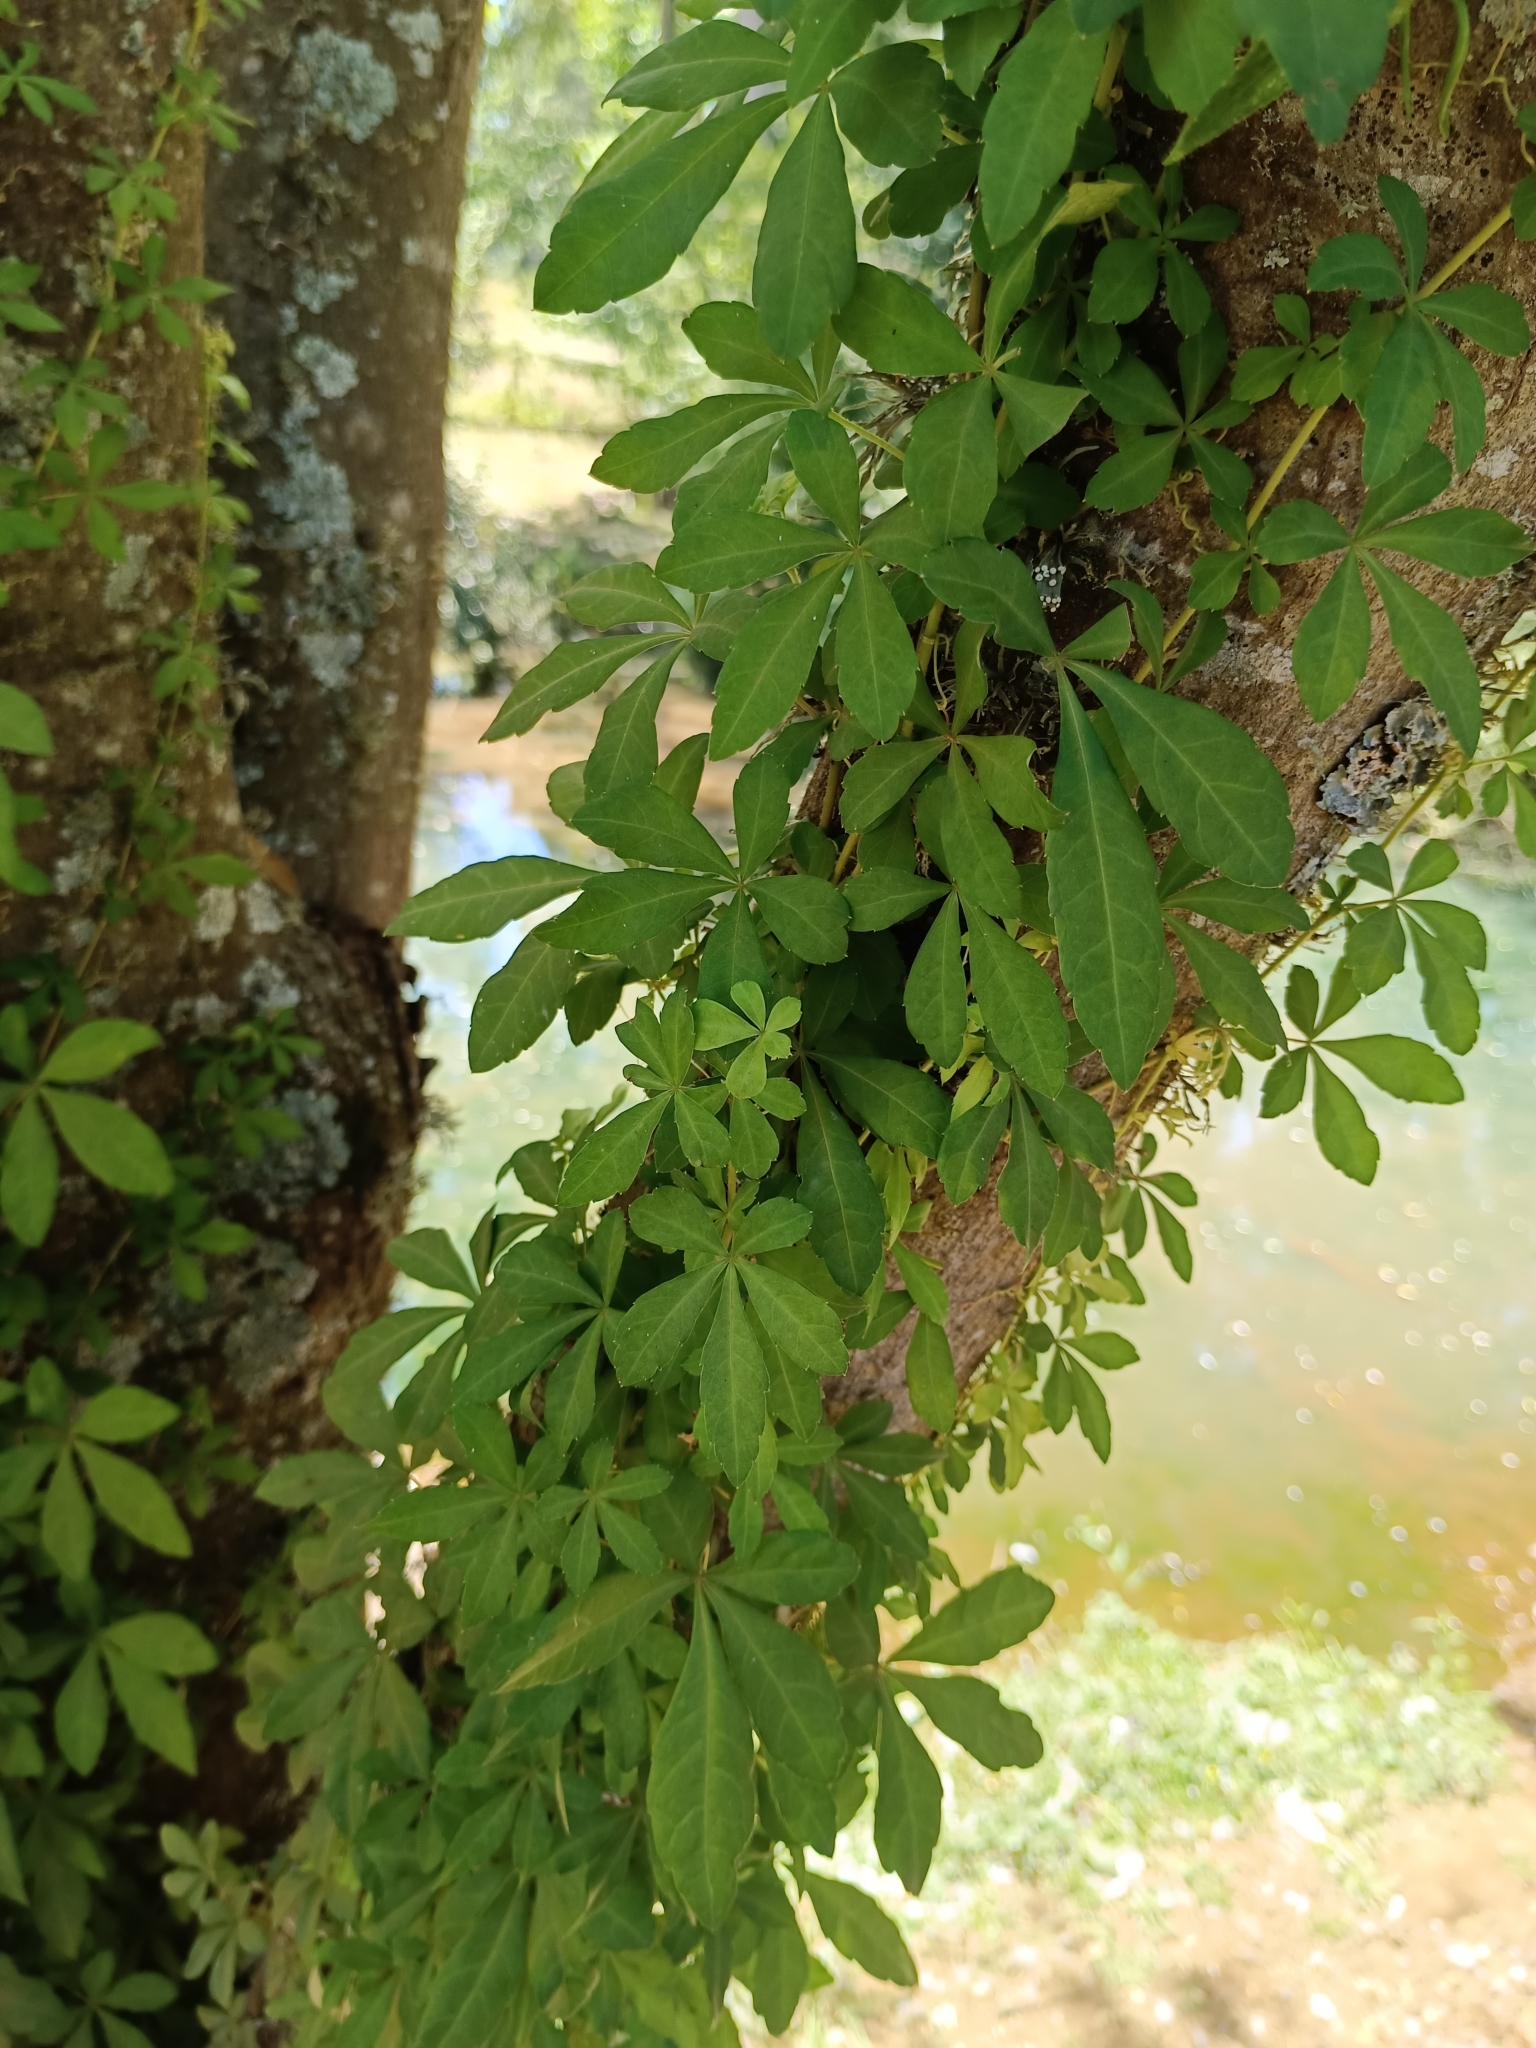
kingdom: Plantae
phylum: Tracheophyta
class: Magnoliopsida
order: Vitales
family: Vitaceae
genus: Clematicissus
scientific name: Clematicissus striata
